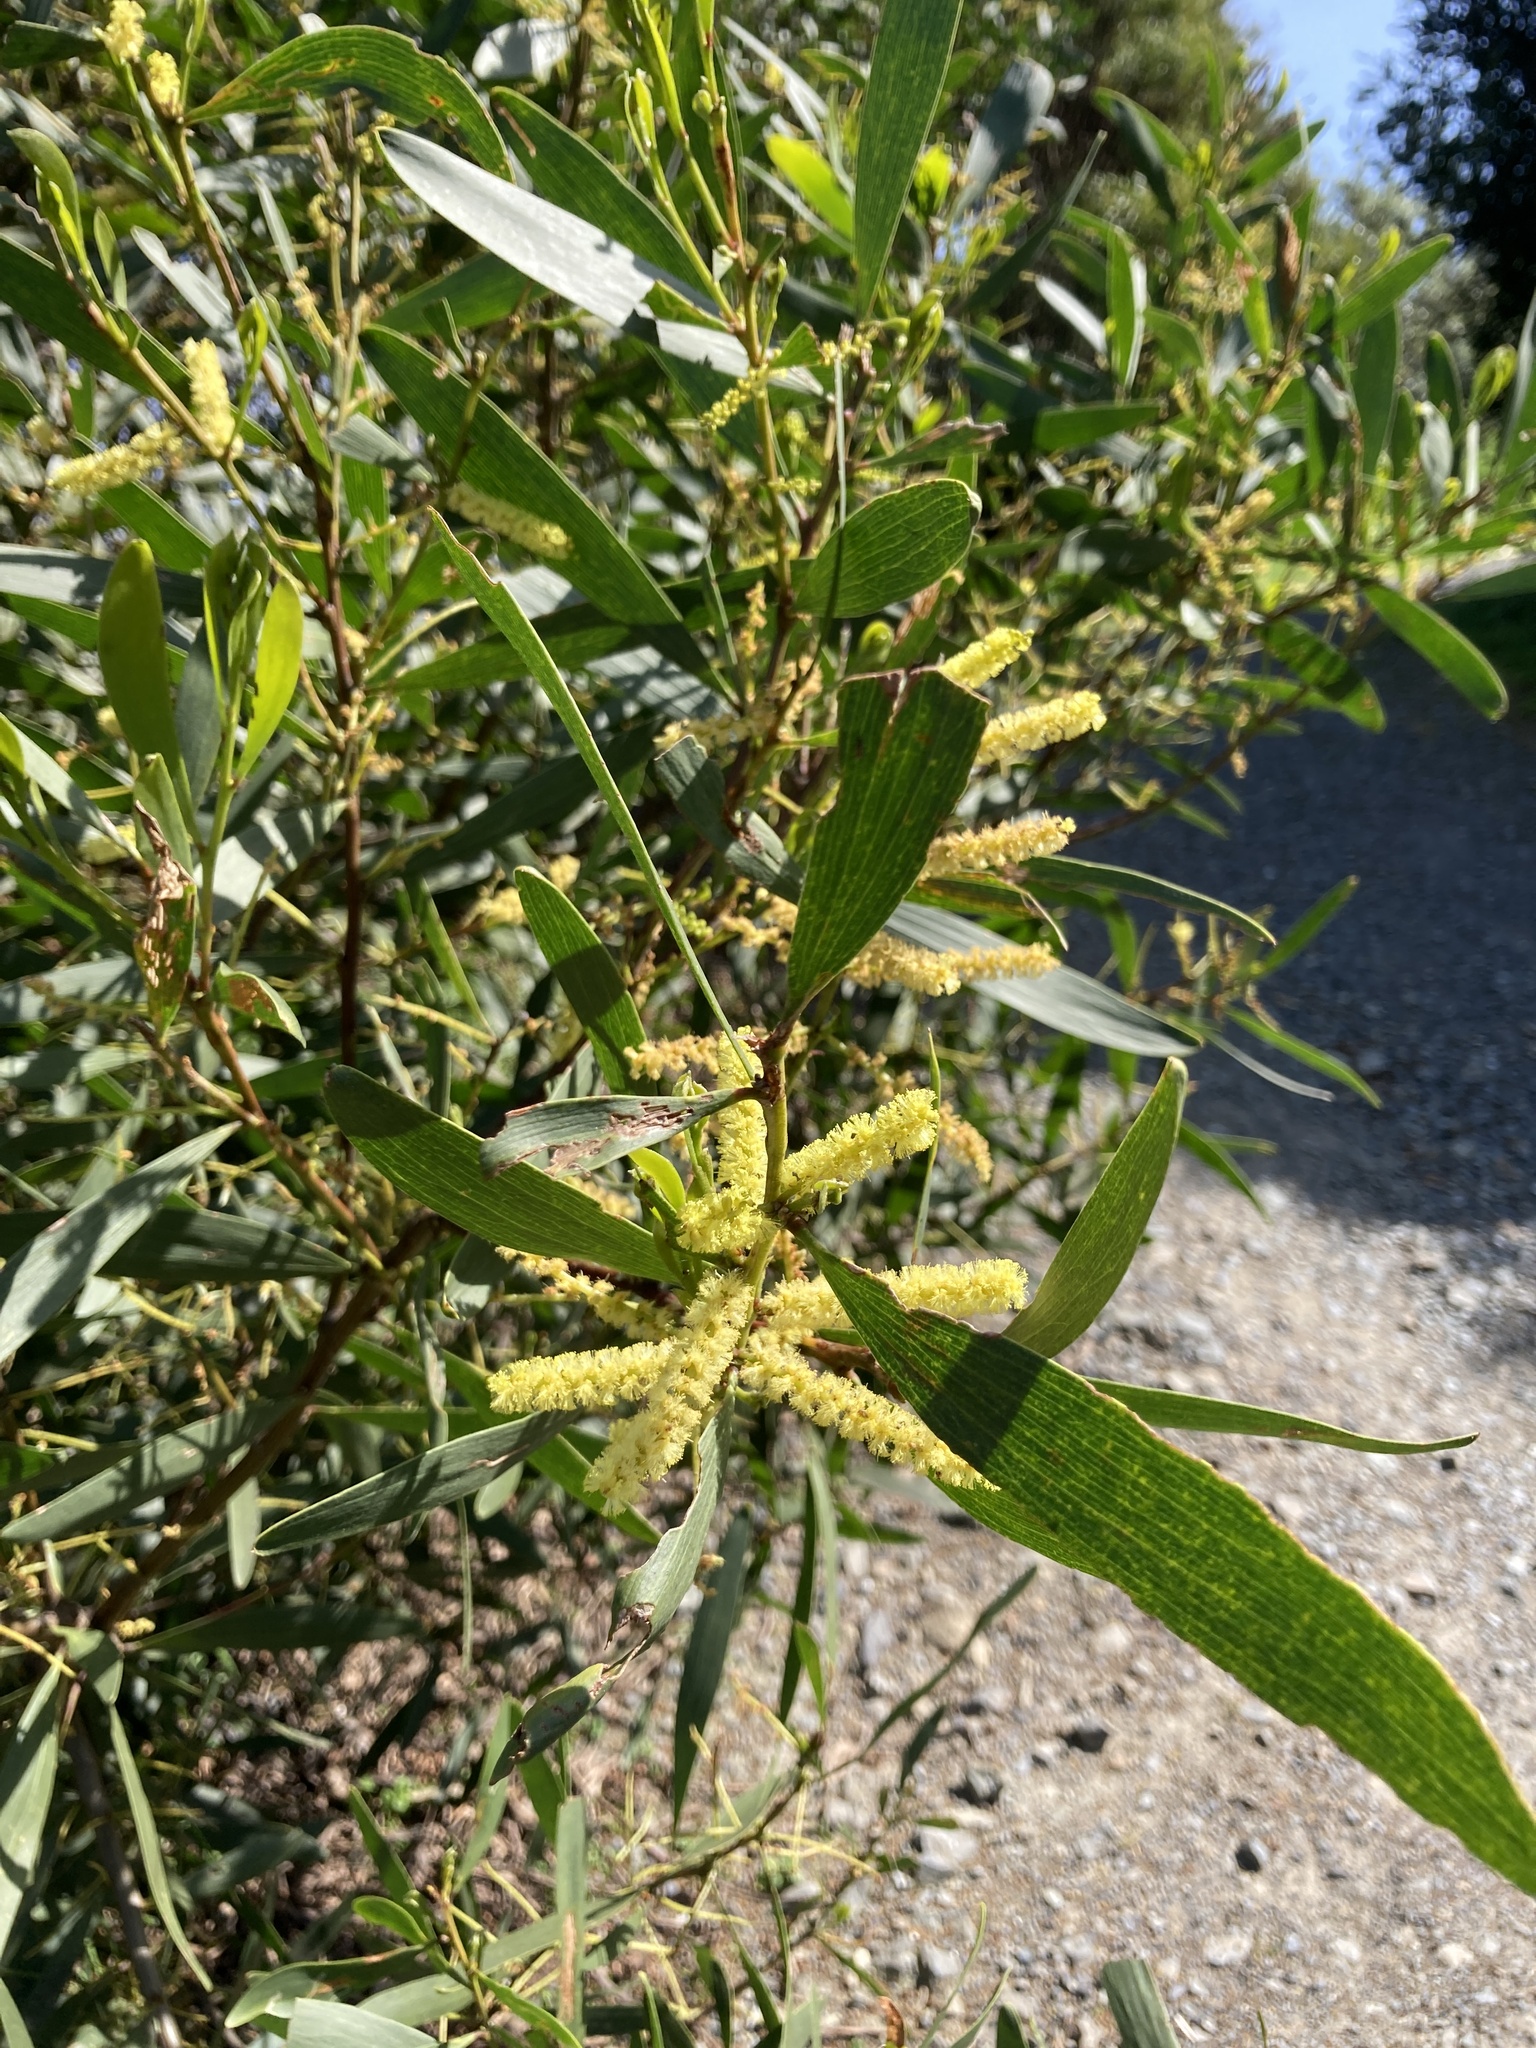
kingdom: Plantae
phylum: Tracheophyta
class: Magnoliopsida
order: Fabales
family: Fabaceae
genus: Acacia
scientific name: Acacia longifolia
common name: Sydney golden wattle
